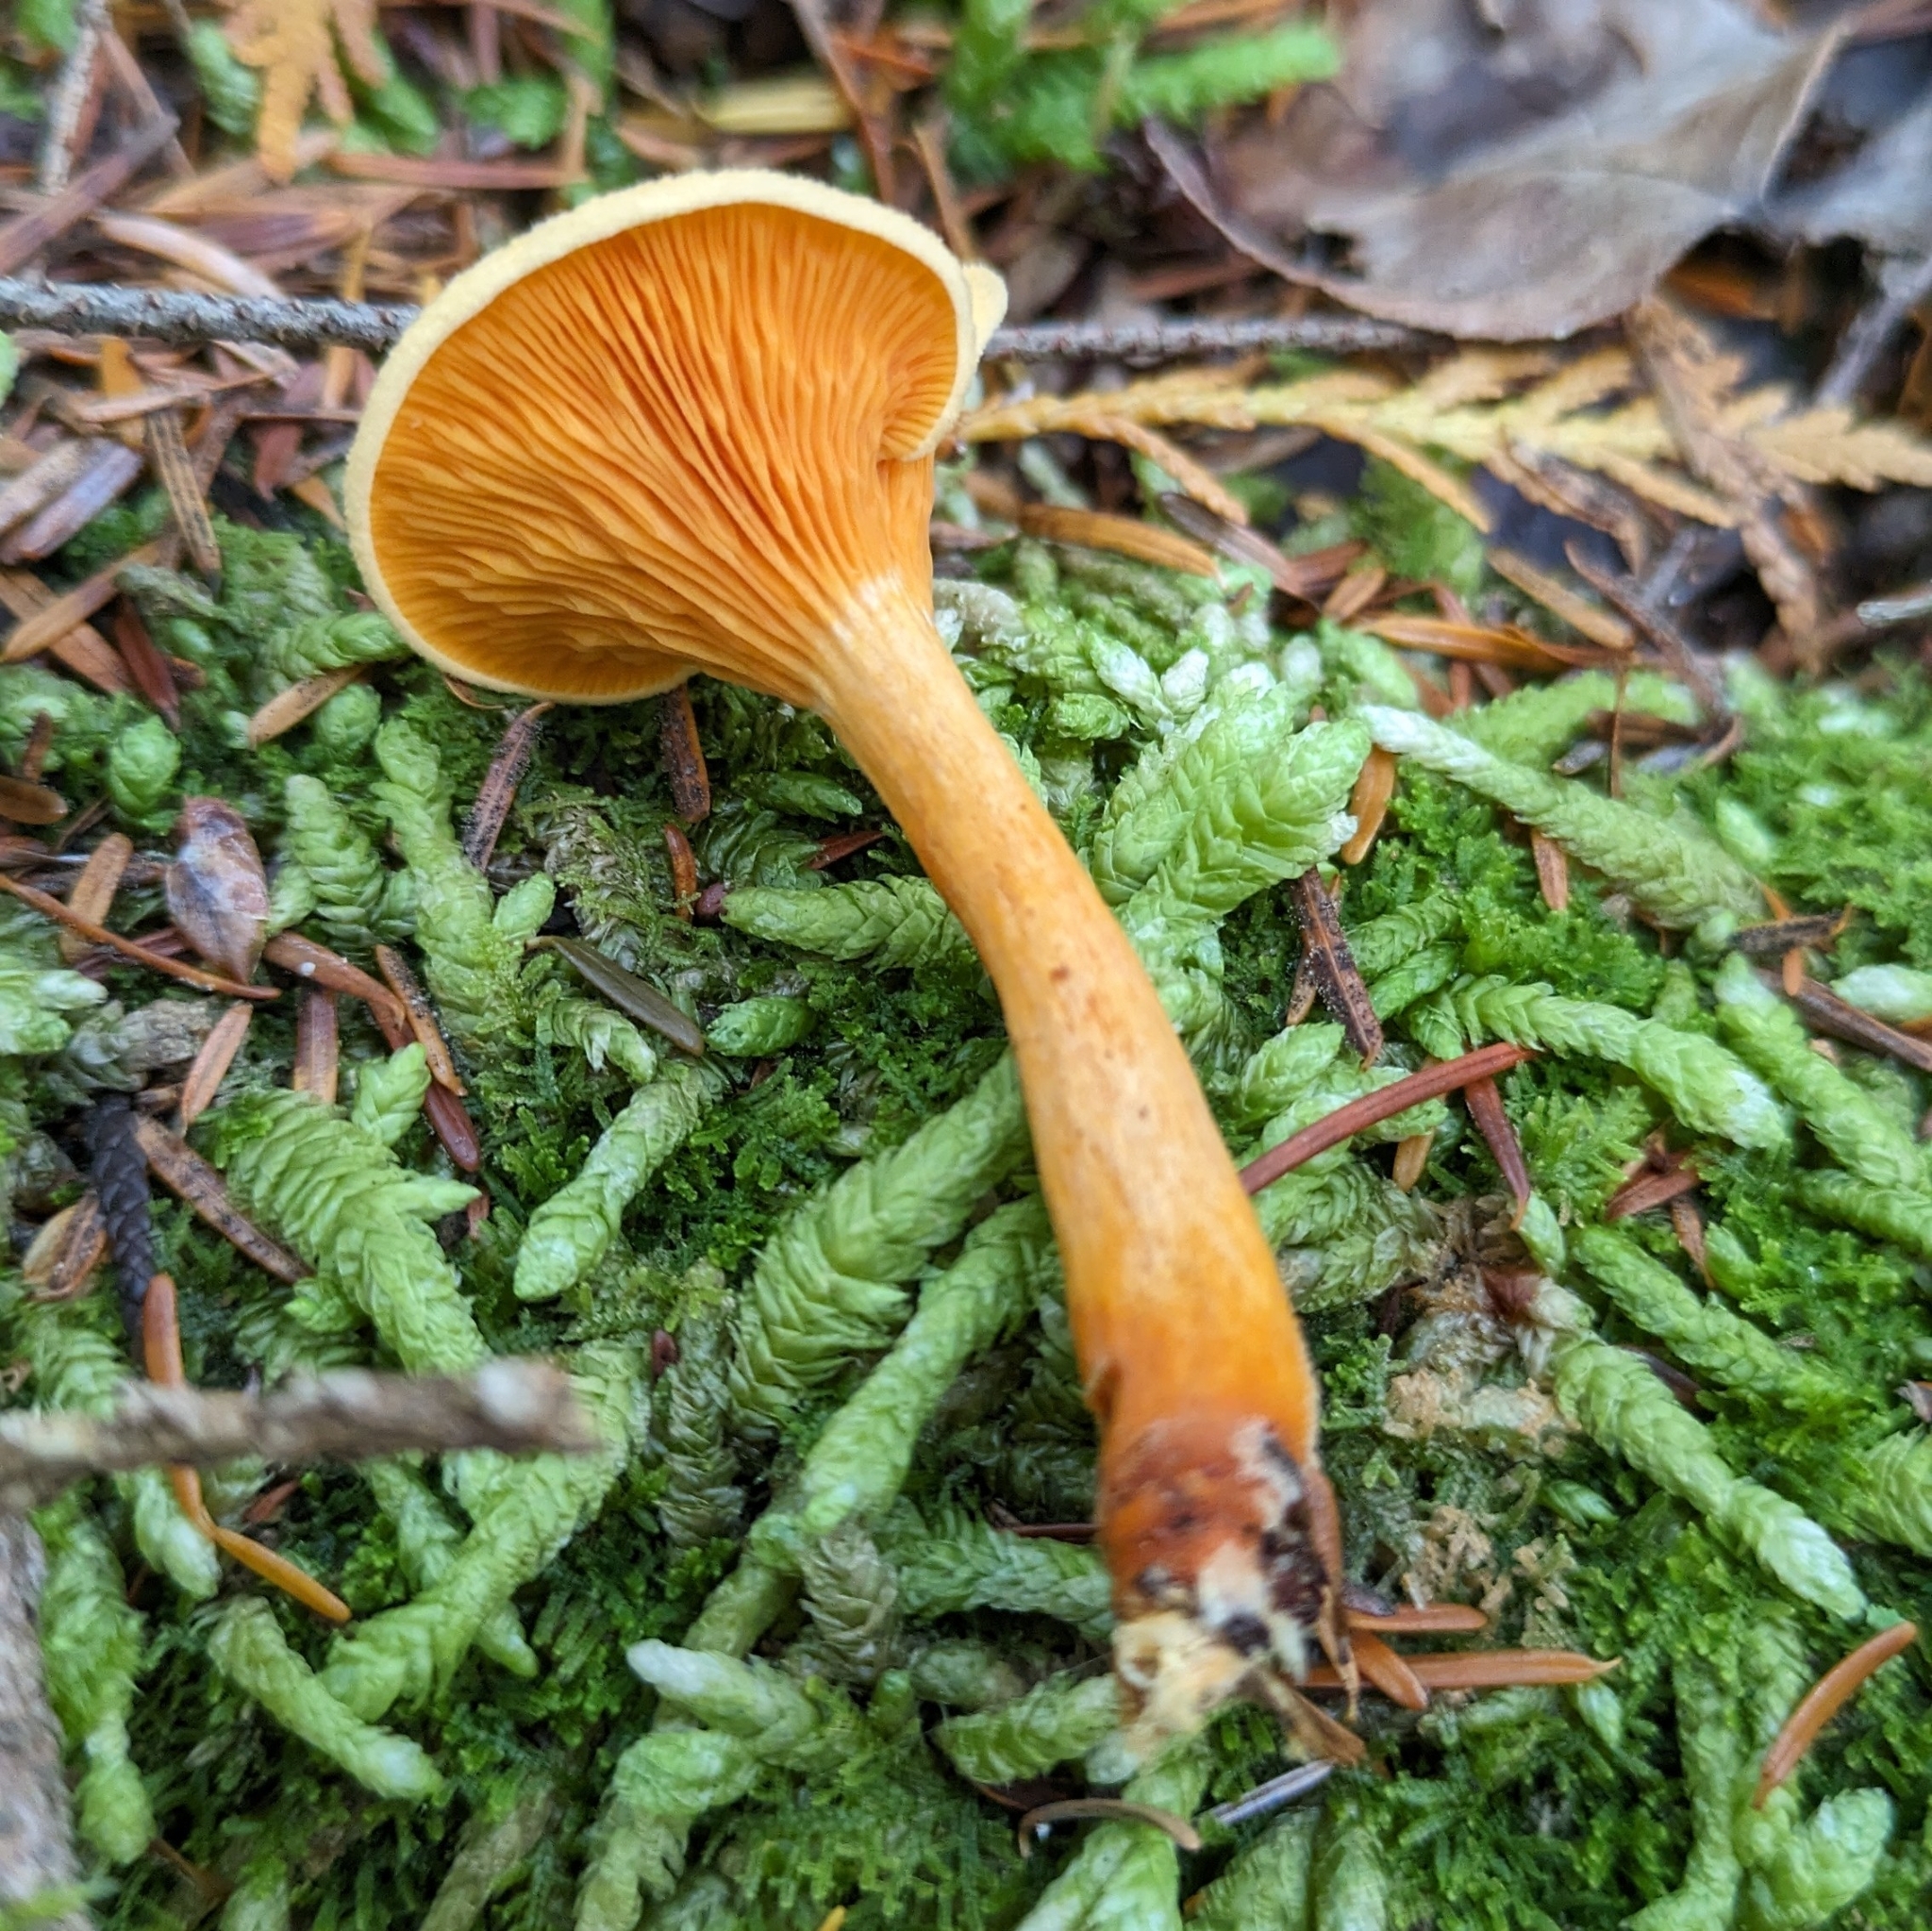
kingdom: Fungi
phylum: Basidiomycota
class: Agaricomycetes
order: Boletales
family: Hygrophoropsidaceae
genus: Hygrophoropsis
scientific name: Hygrophoropsis aurantiaca
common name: False chanterelle
